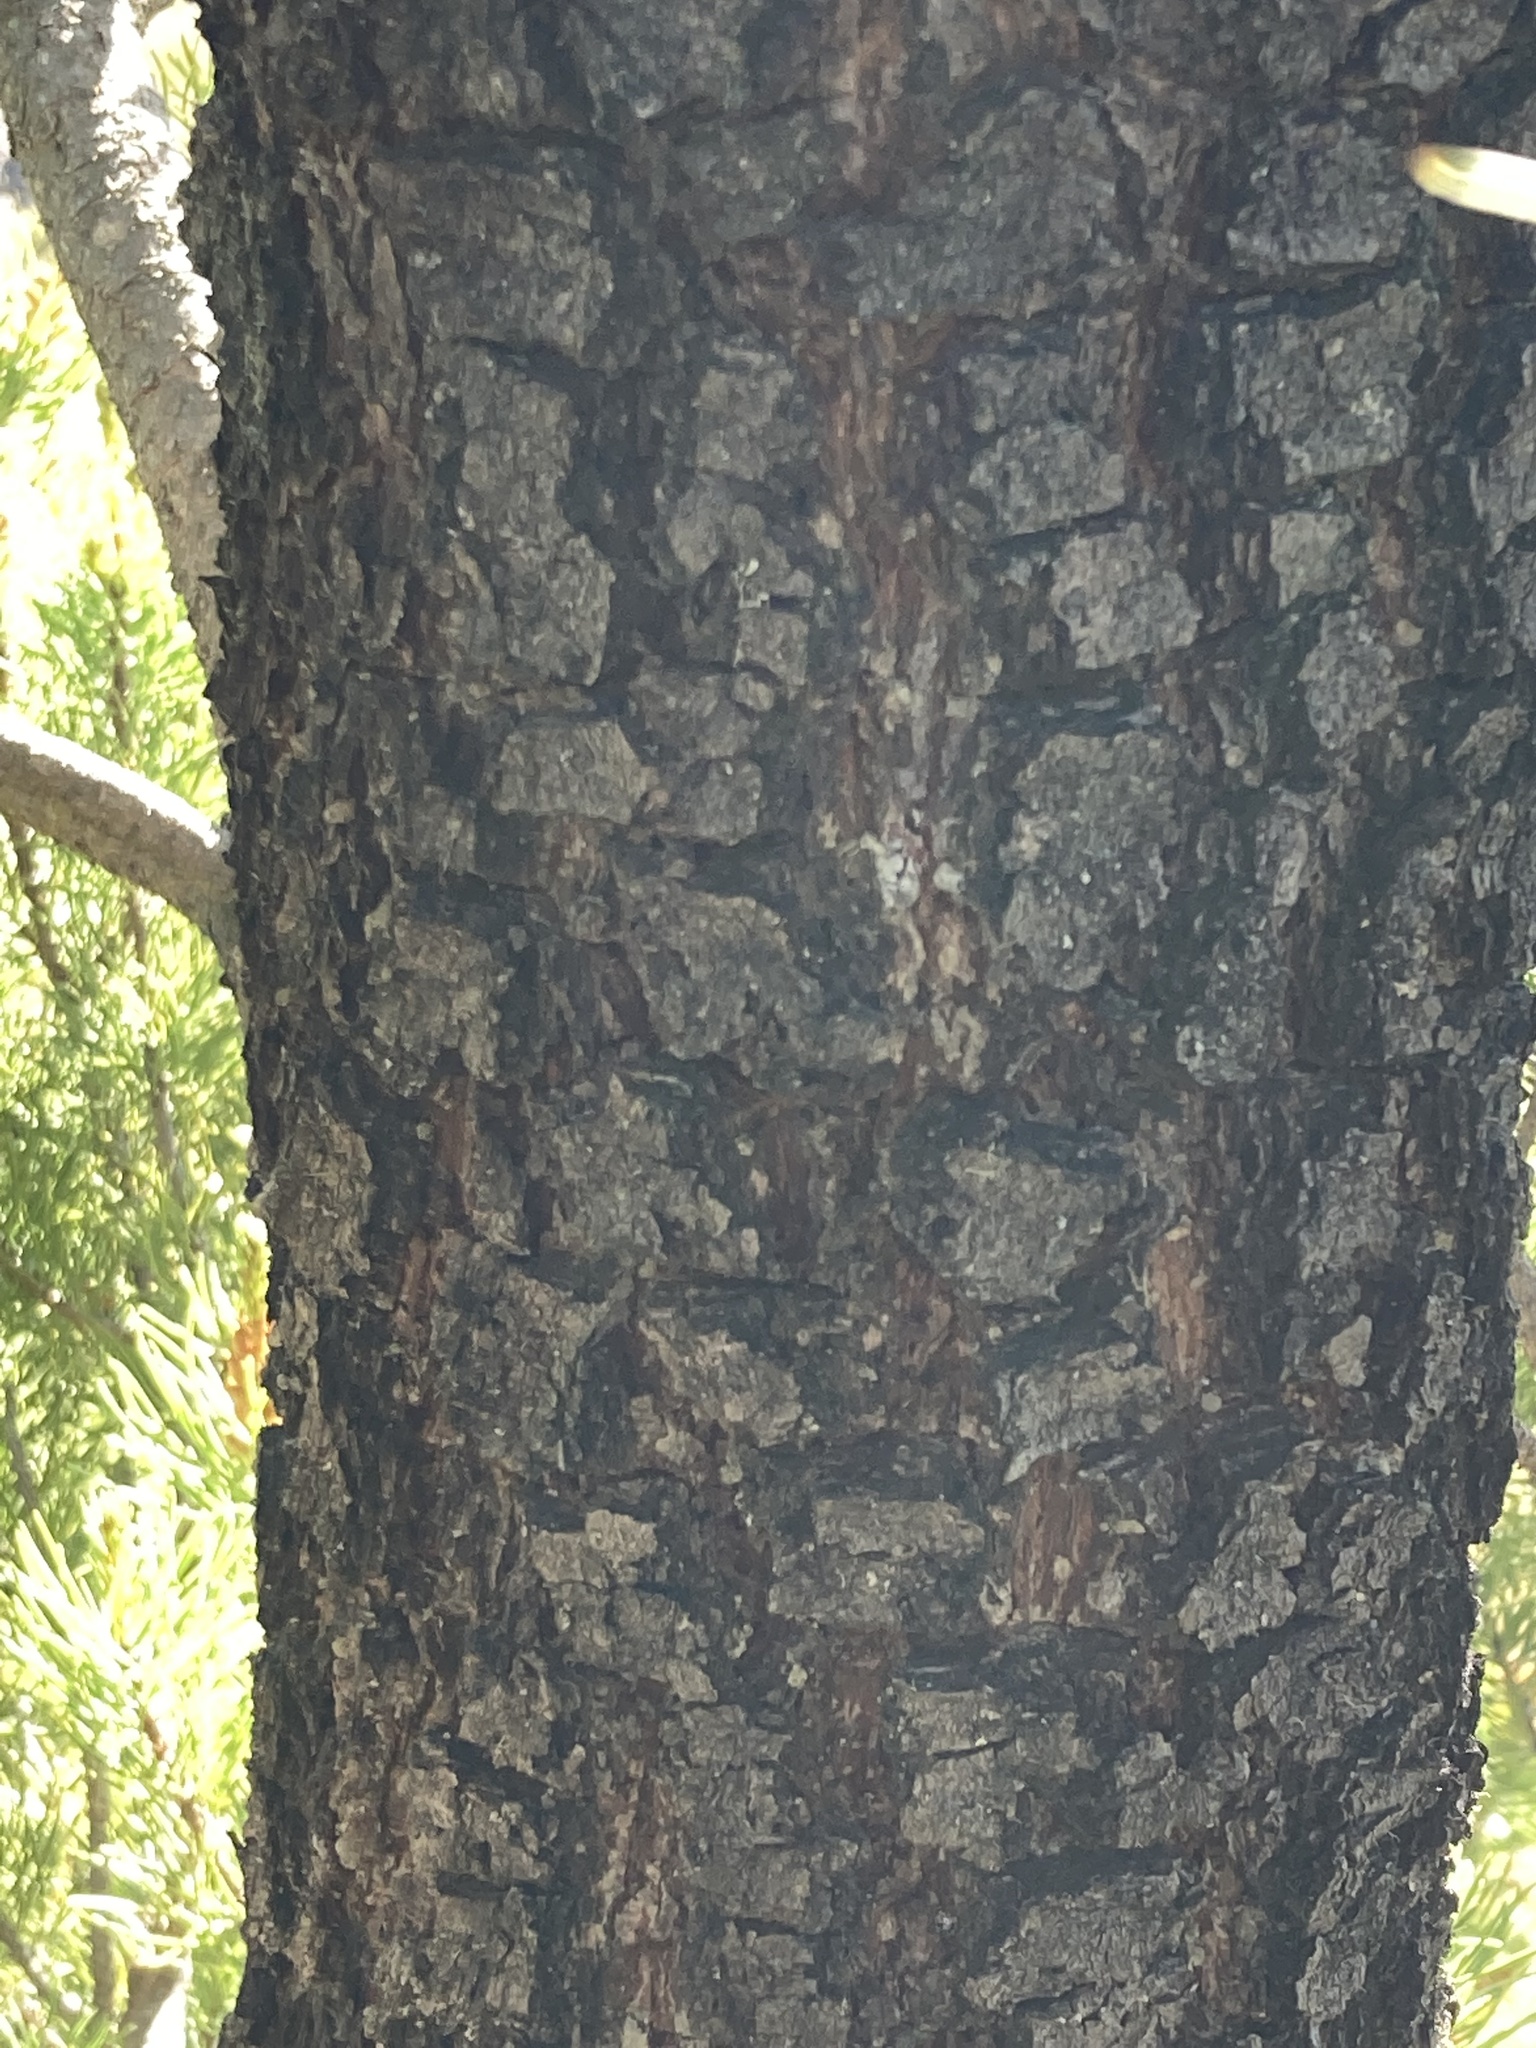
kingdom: Plantae
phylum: Tracheophyta
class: Pinopsida
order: Pinales
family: Pinaceae
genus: Pinus
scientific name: Pinus contorta
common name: Lodgepole pine
